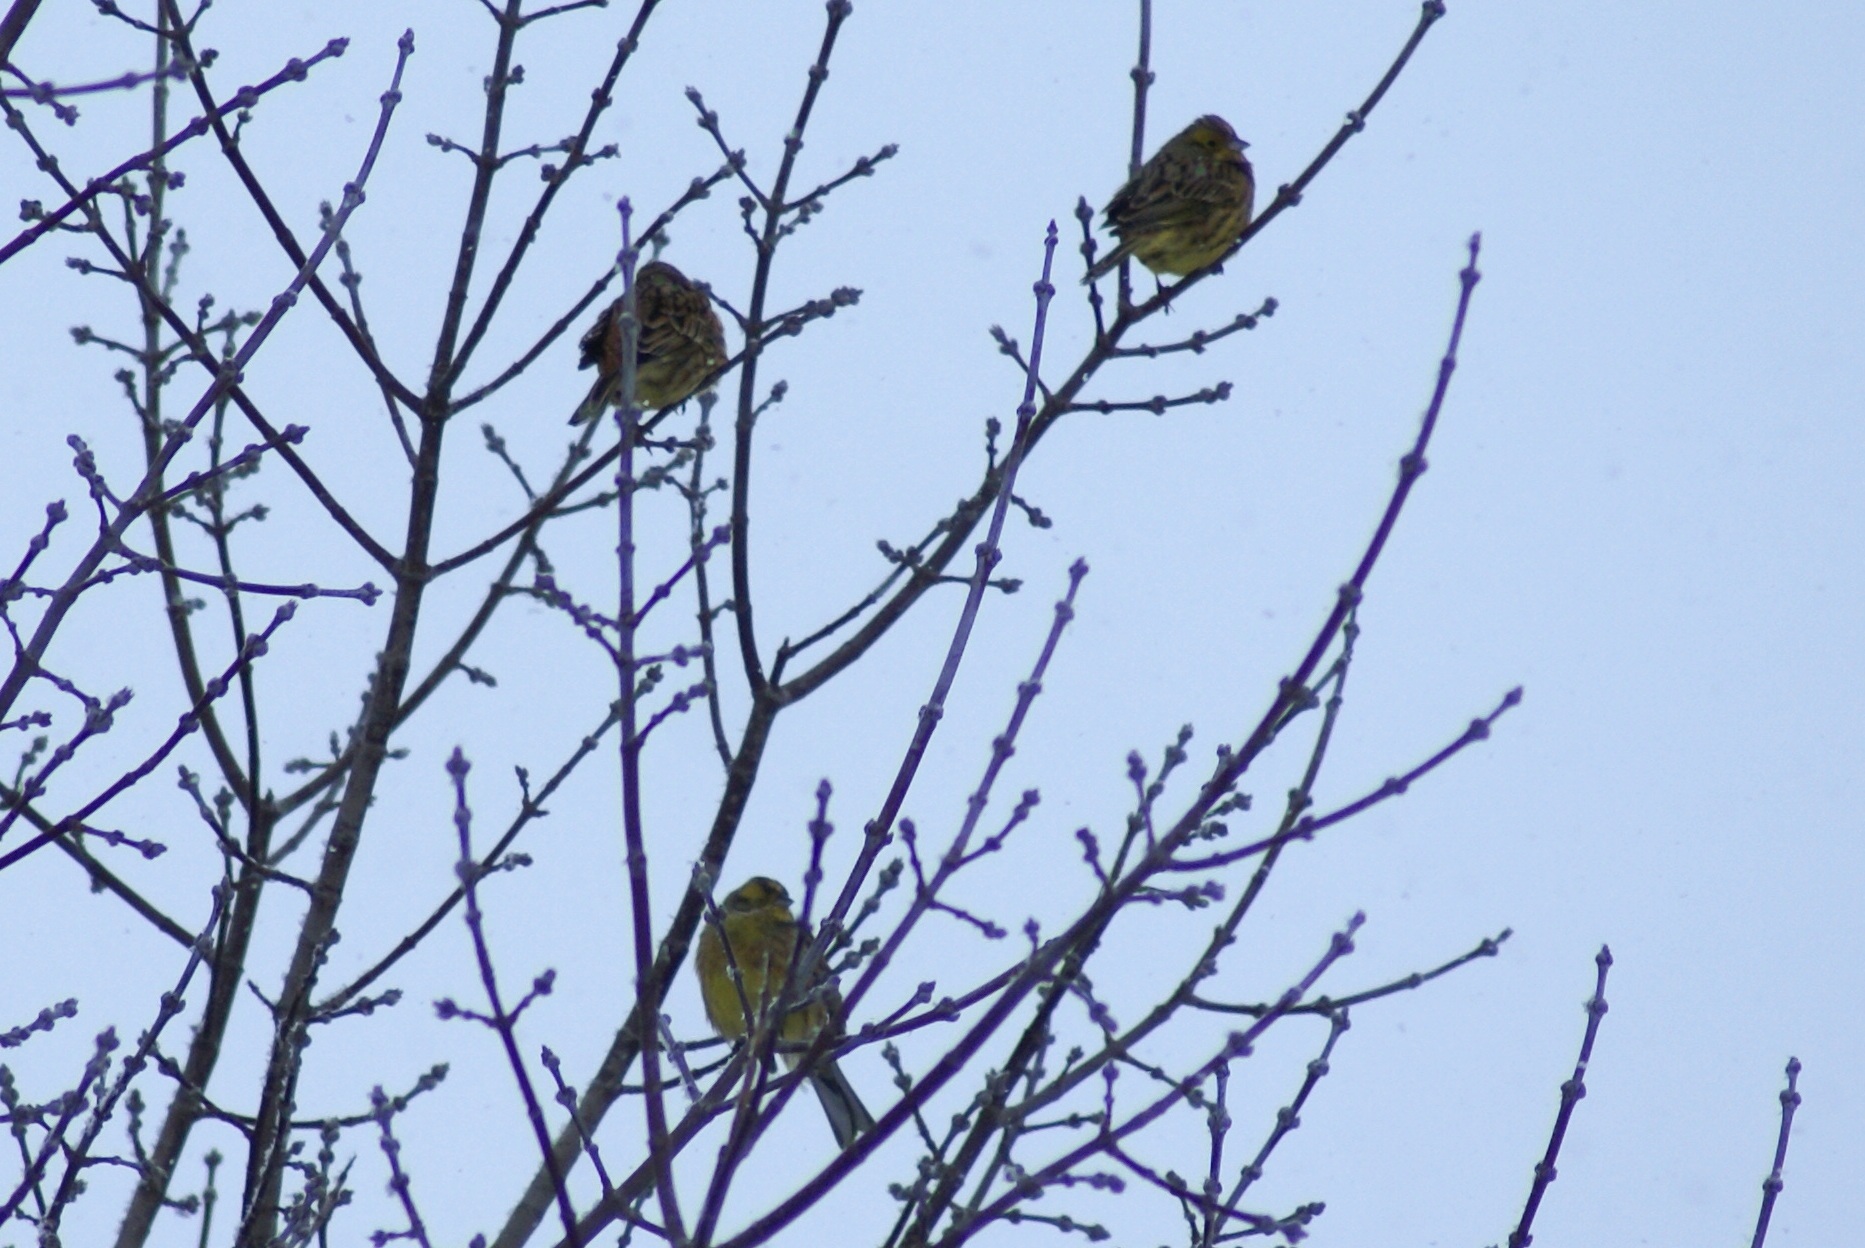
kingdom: Animalia
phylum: Chordata
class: Aves
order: Passeriformes
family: Emberizidae
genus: Emberiza
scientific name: Emberiza citrinella
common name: Yellowhammer
